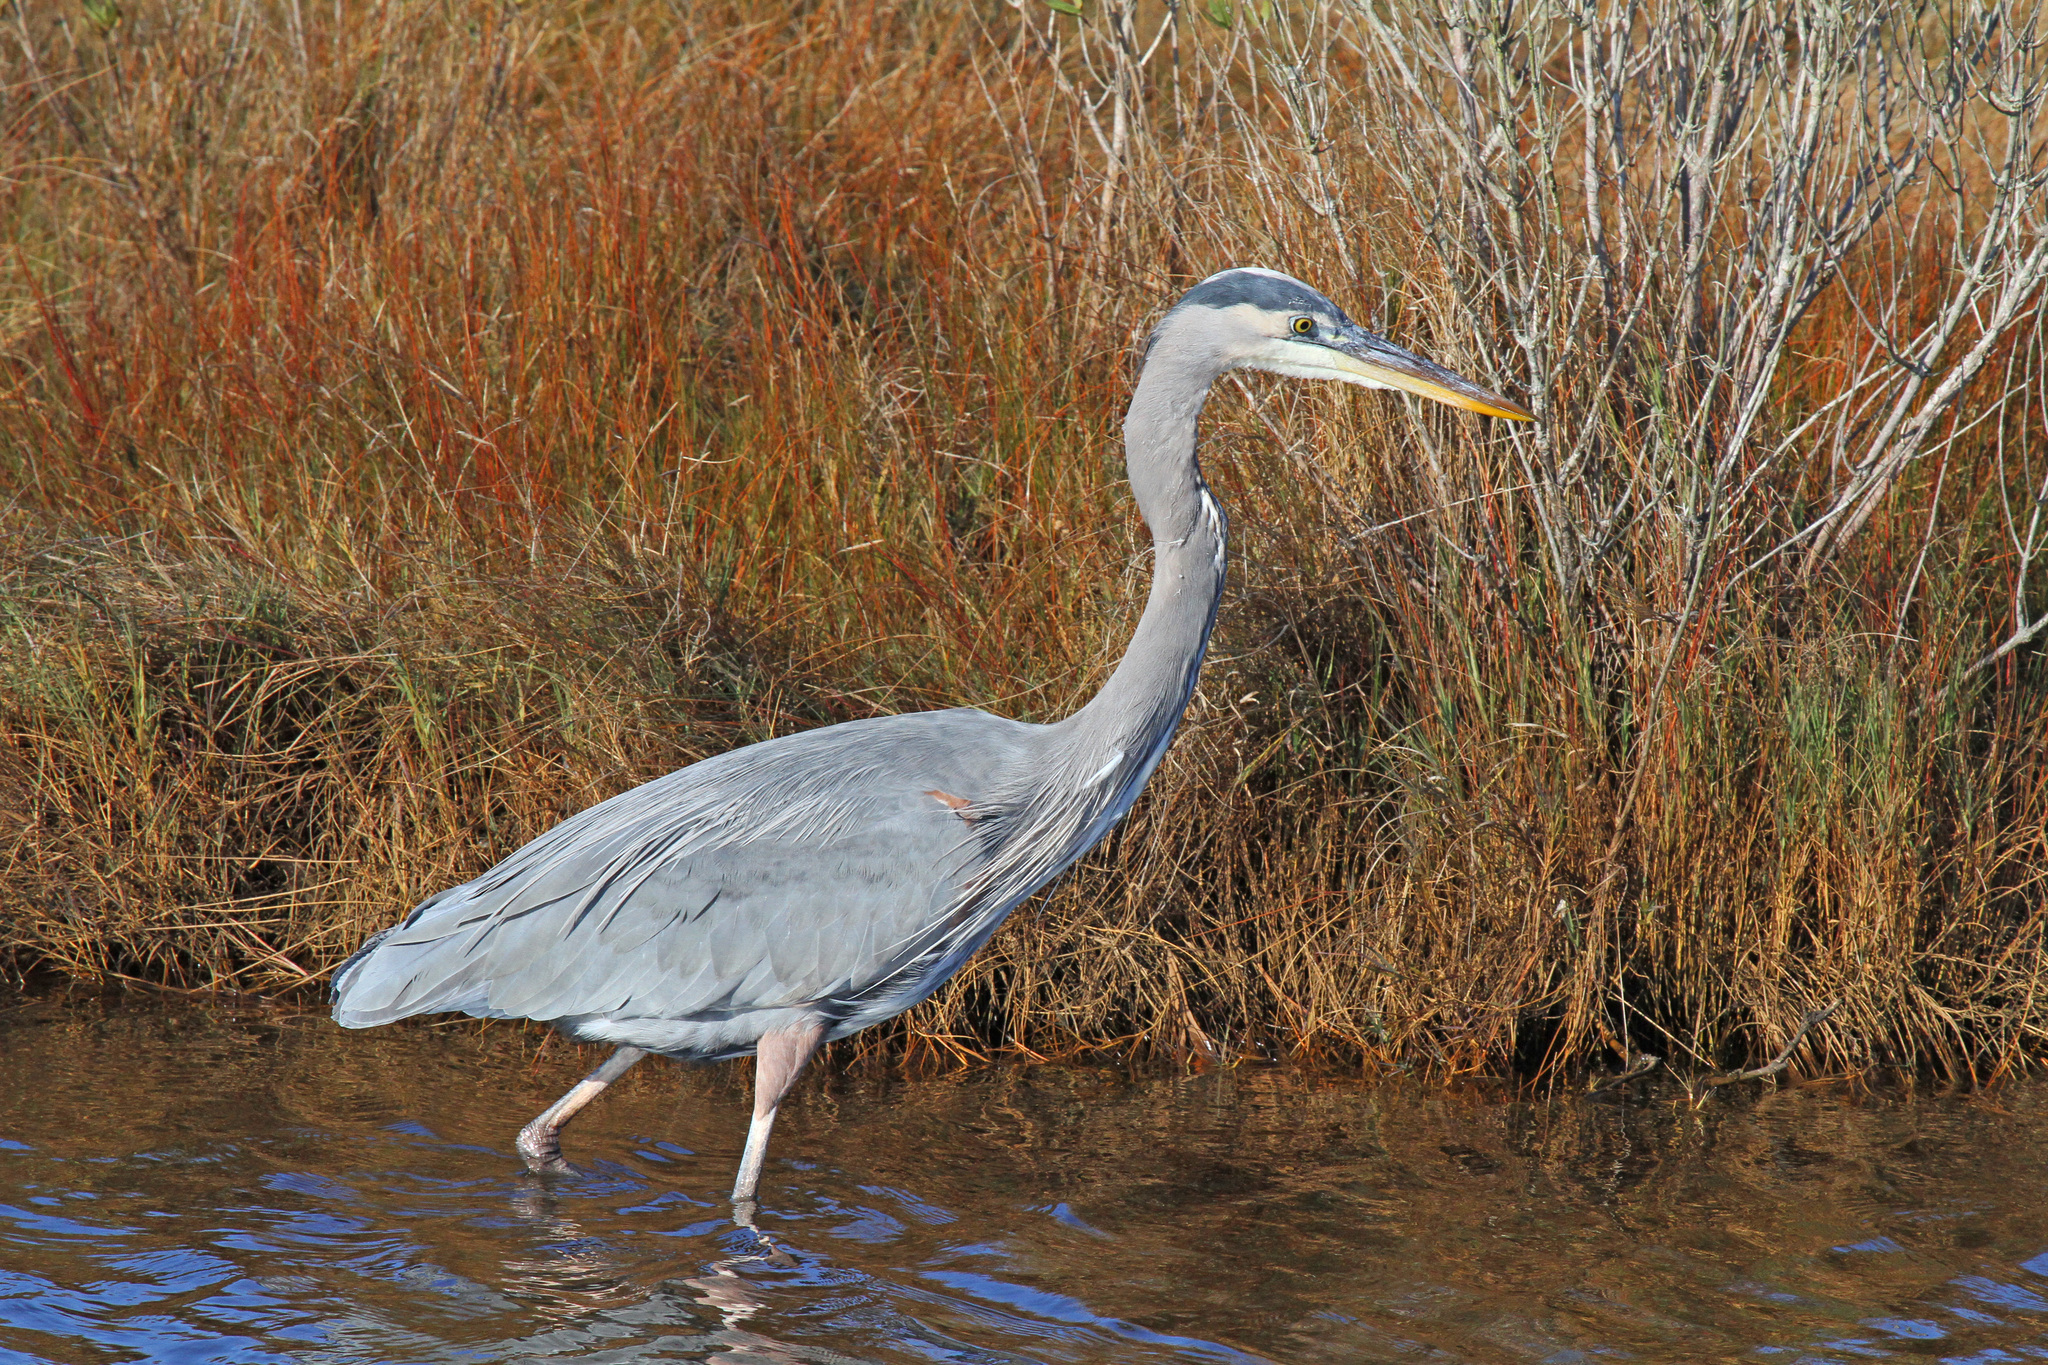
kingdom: Animalia
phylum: Chordata
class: Aves
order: Pelecaniformes
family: Ardeidae
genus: Ardea
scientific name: Ardea herodias
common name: Great blue heron
